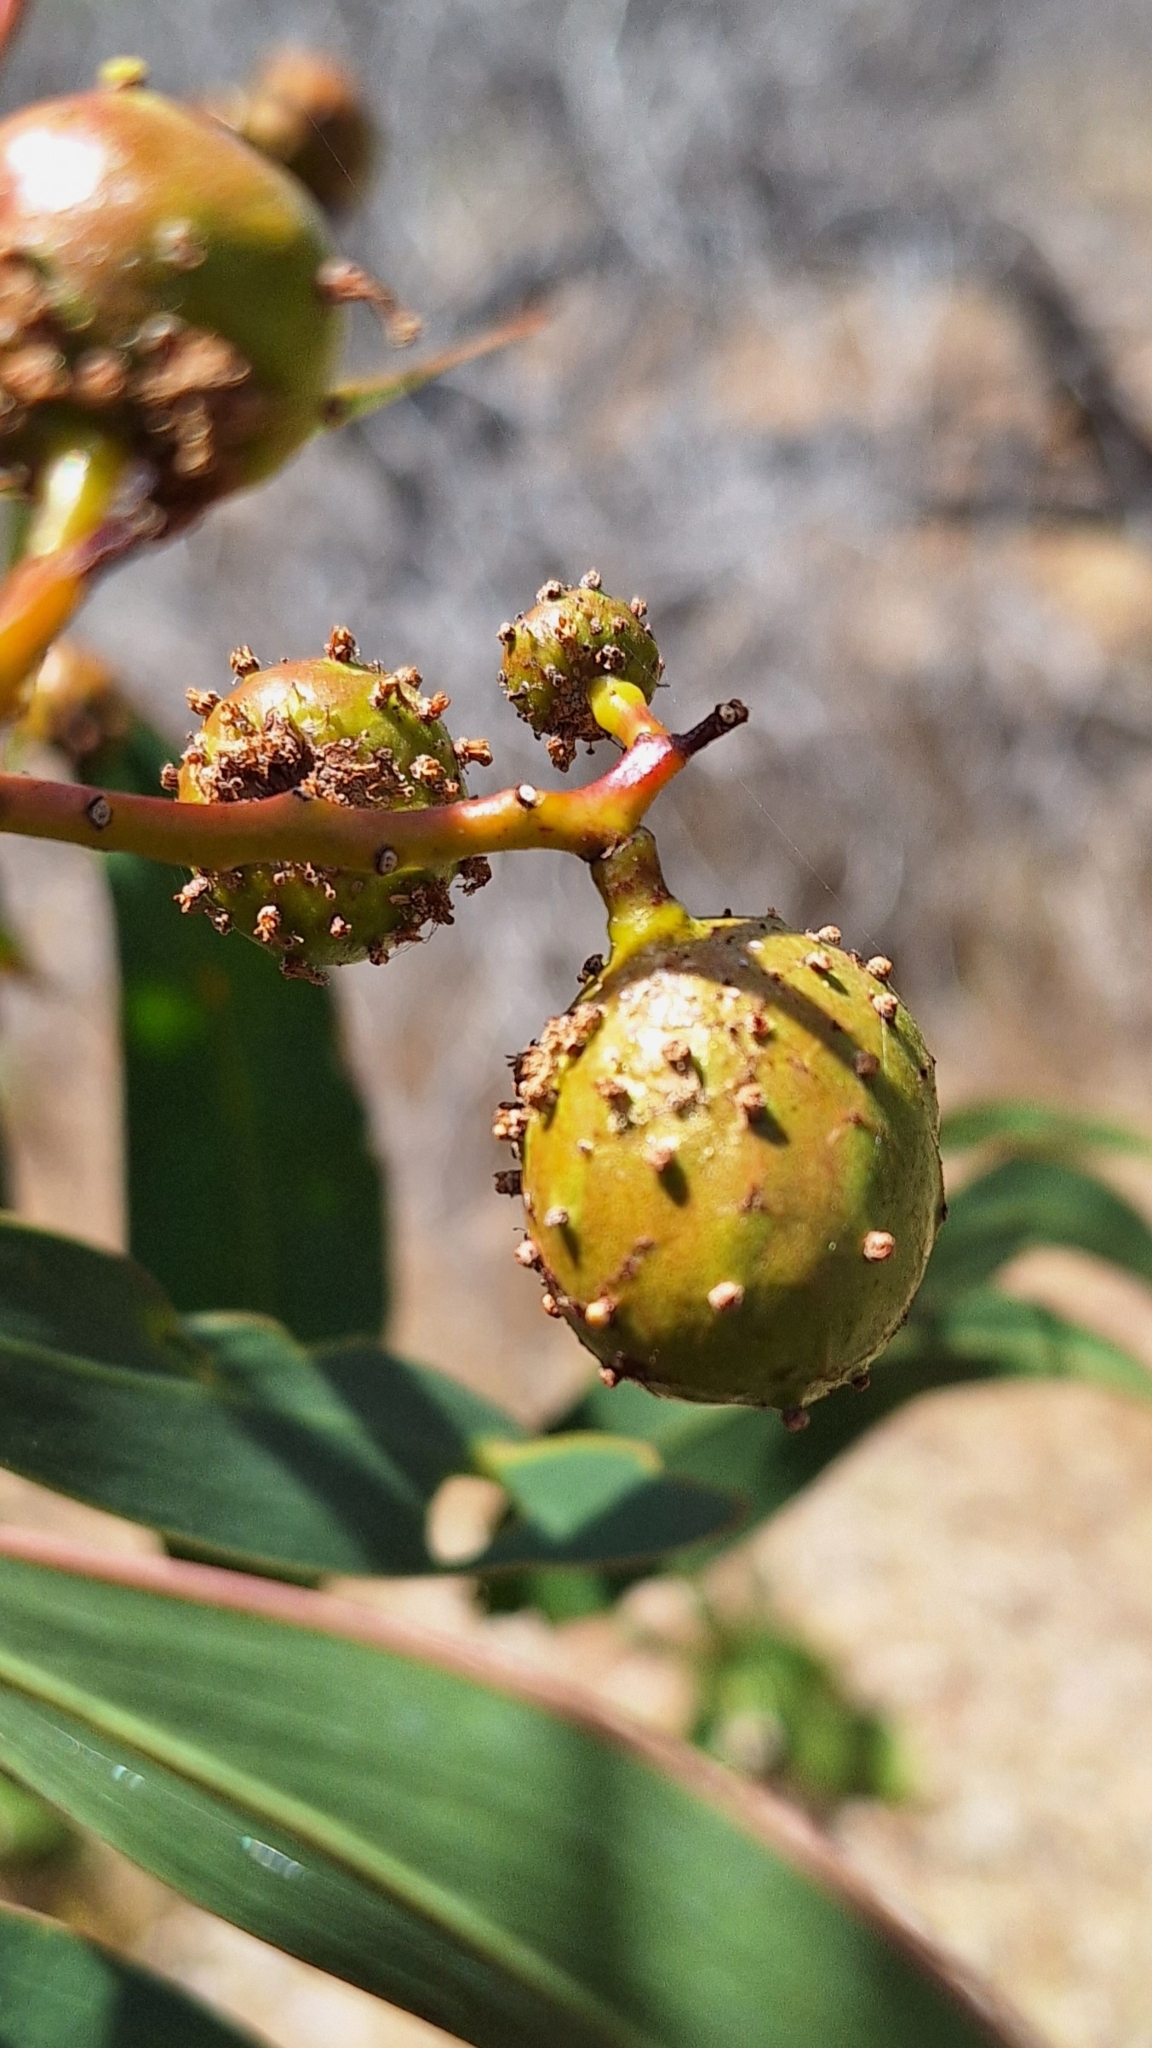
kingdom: Animalia
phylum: Arthropoda
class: Insecta
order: Hymenoptera
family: Pteromalidae
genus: Trichilogaster
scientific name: Trichilogaster signiventris
